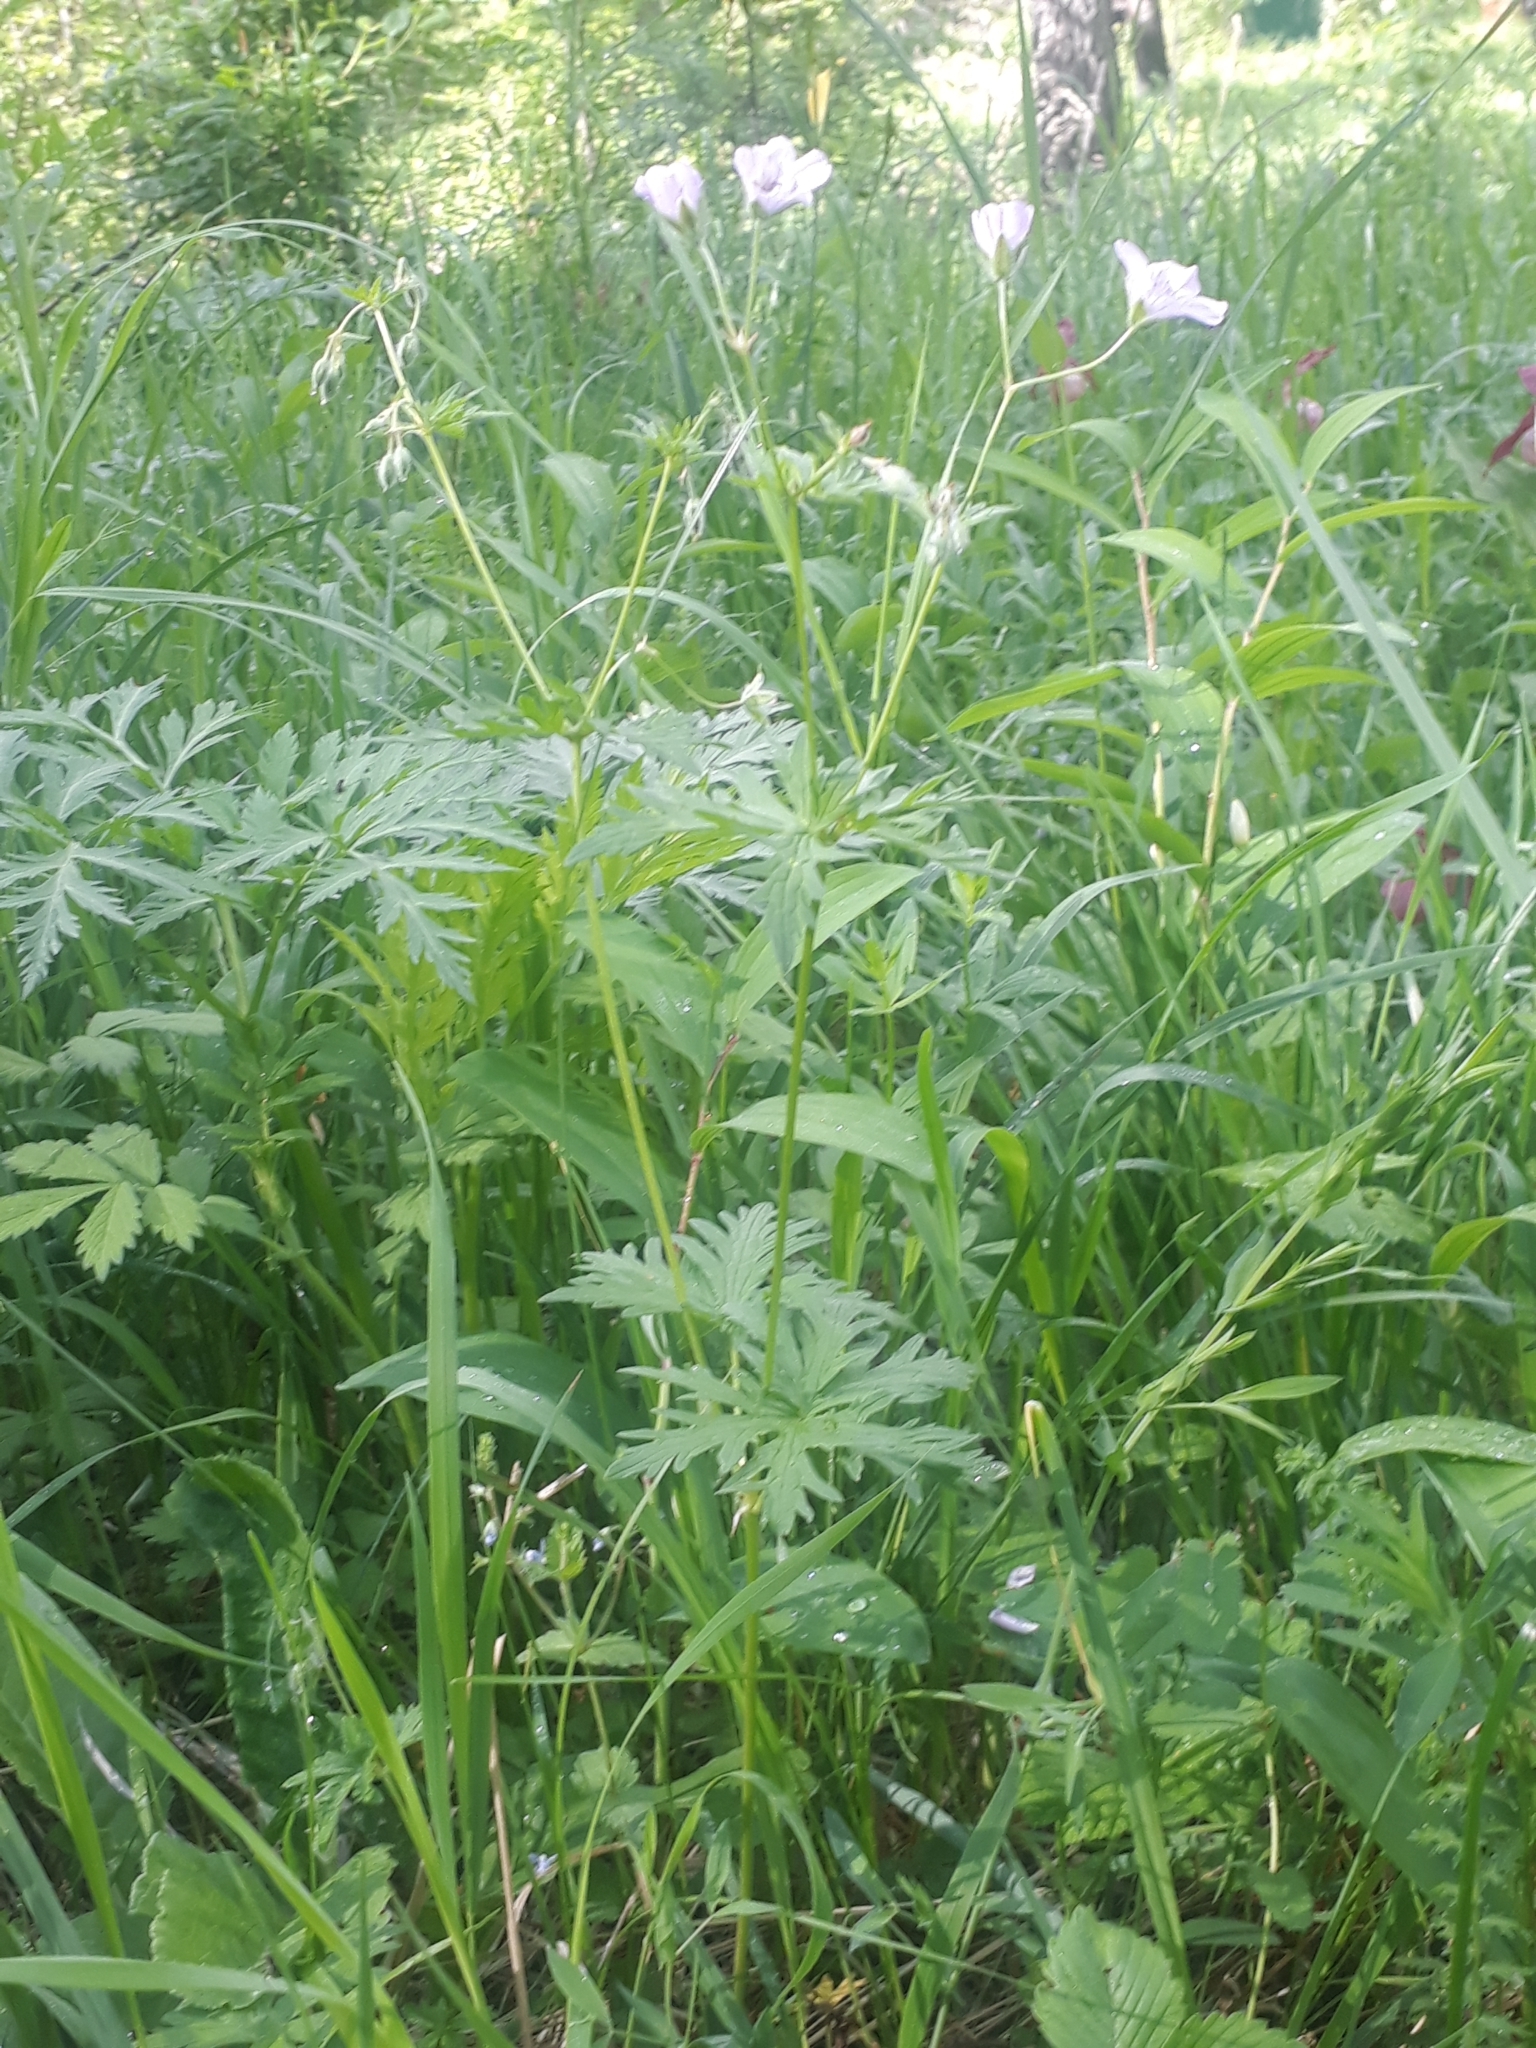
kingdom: Plantae
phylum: Tracheophyta
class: Magnoliopsida
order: Geraniales
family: Geraniaceae
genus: Geranium
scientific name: Geranium pseudosibiricum
